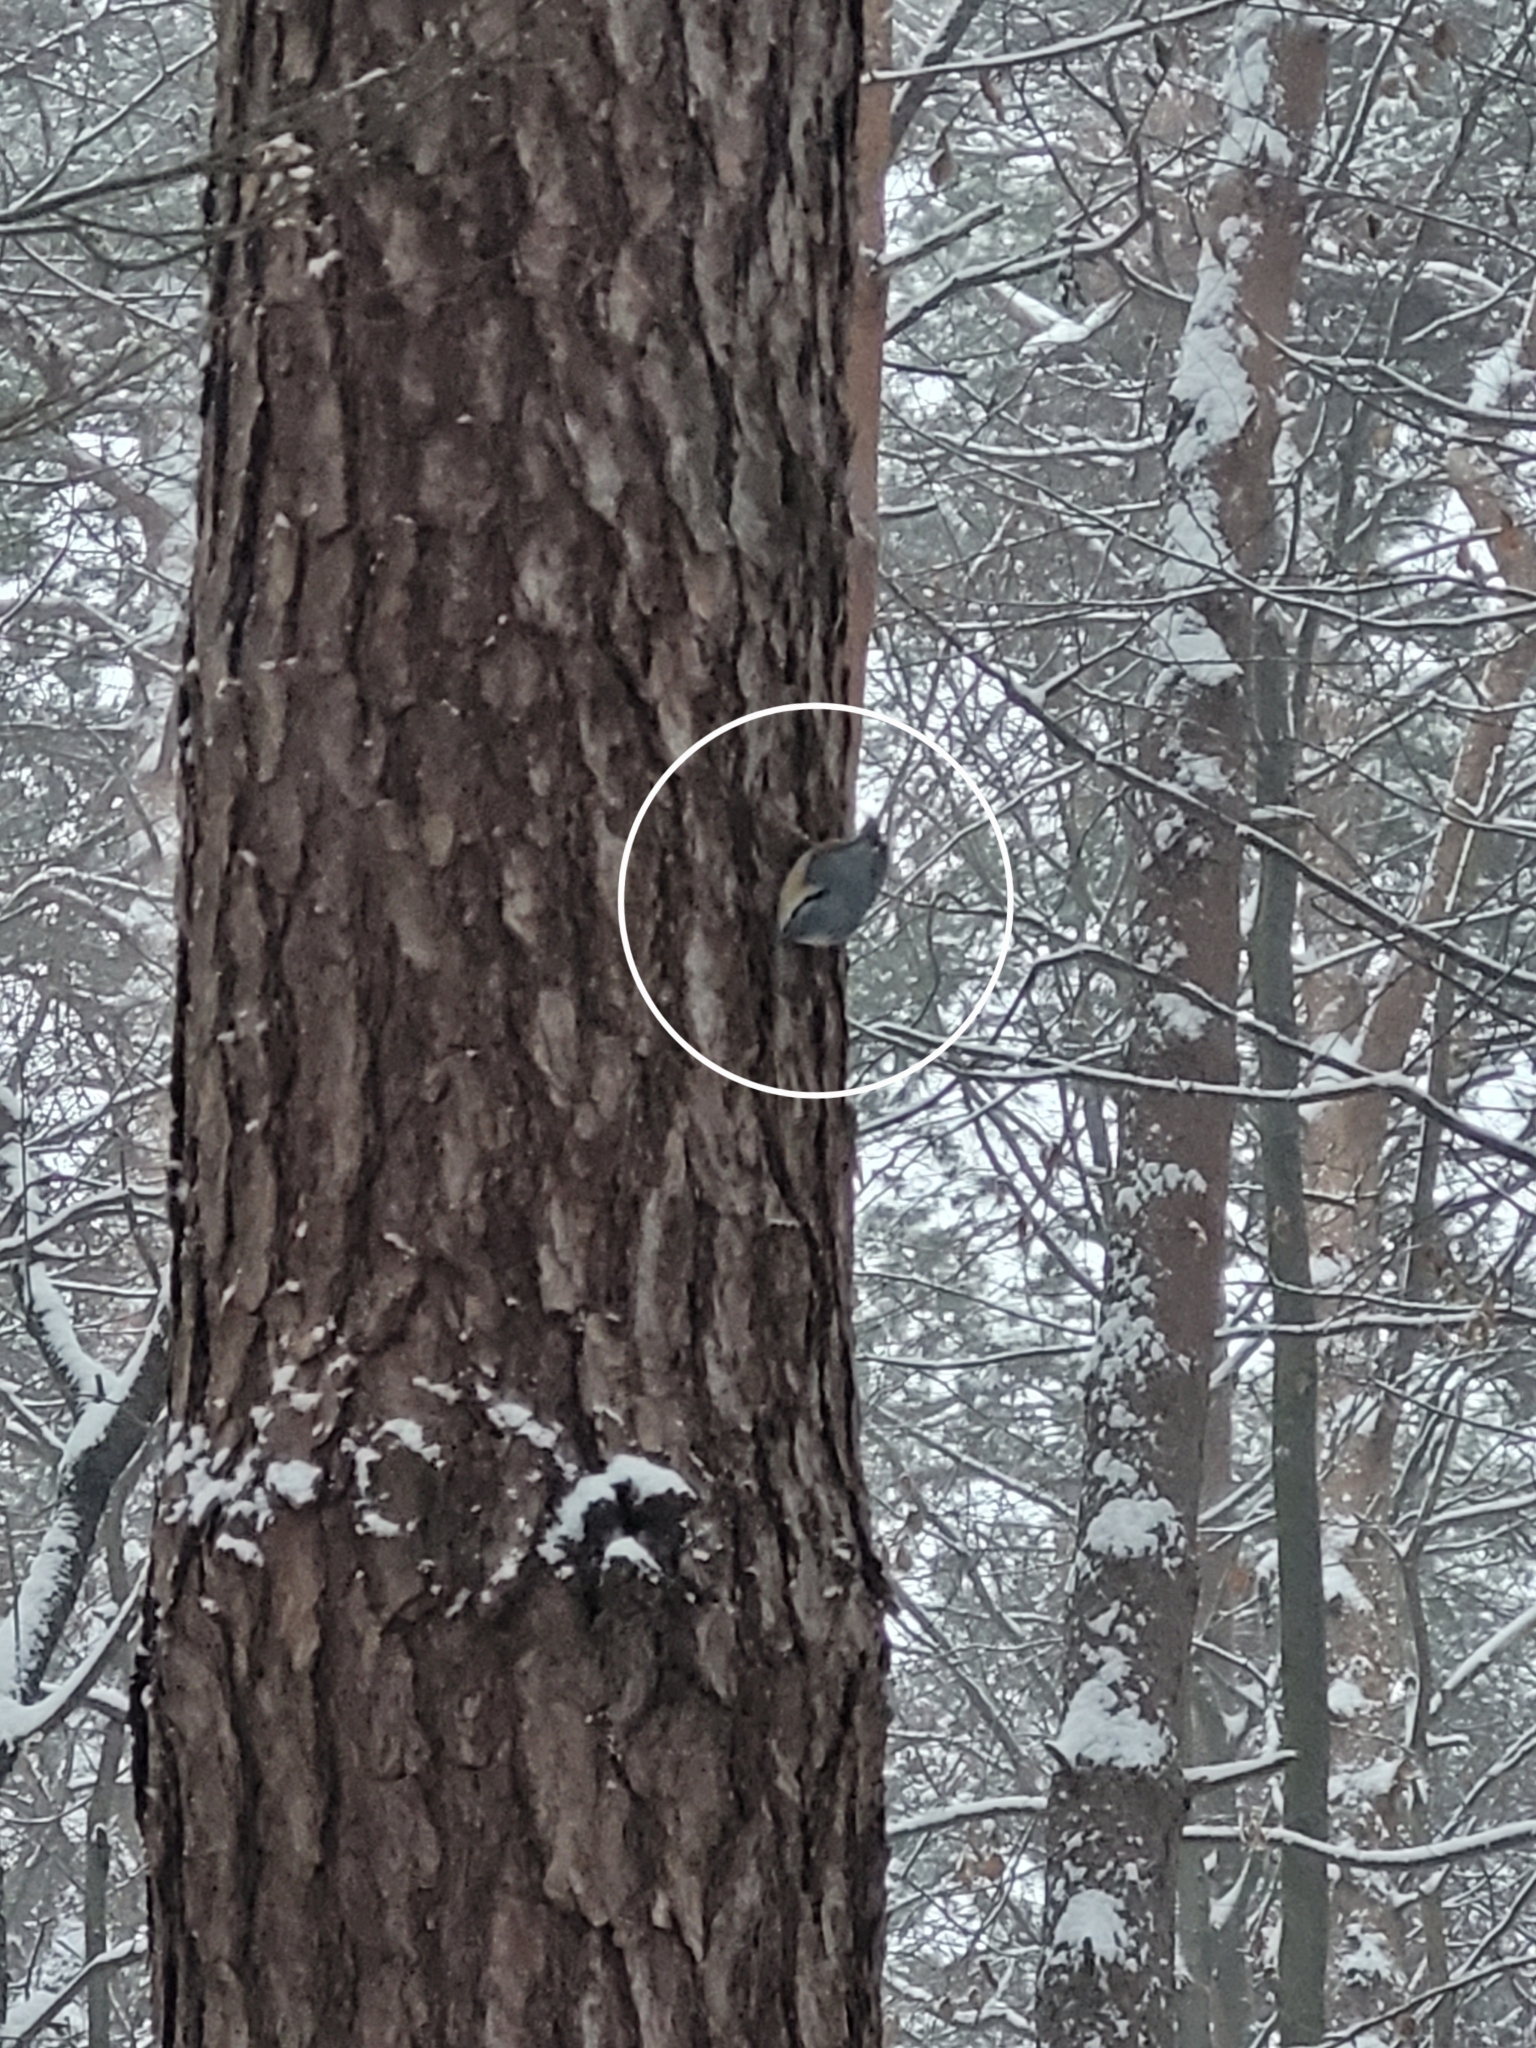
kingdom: Animalia
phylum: Chordata
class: Aves
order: Passeriformes
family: Sittidae
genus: Sitta
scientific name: Sitta europaea
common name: Eurasian nuthatch
